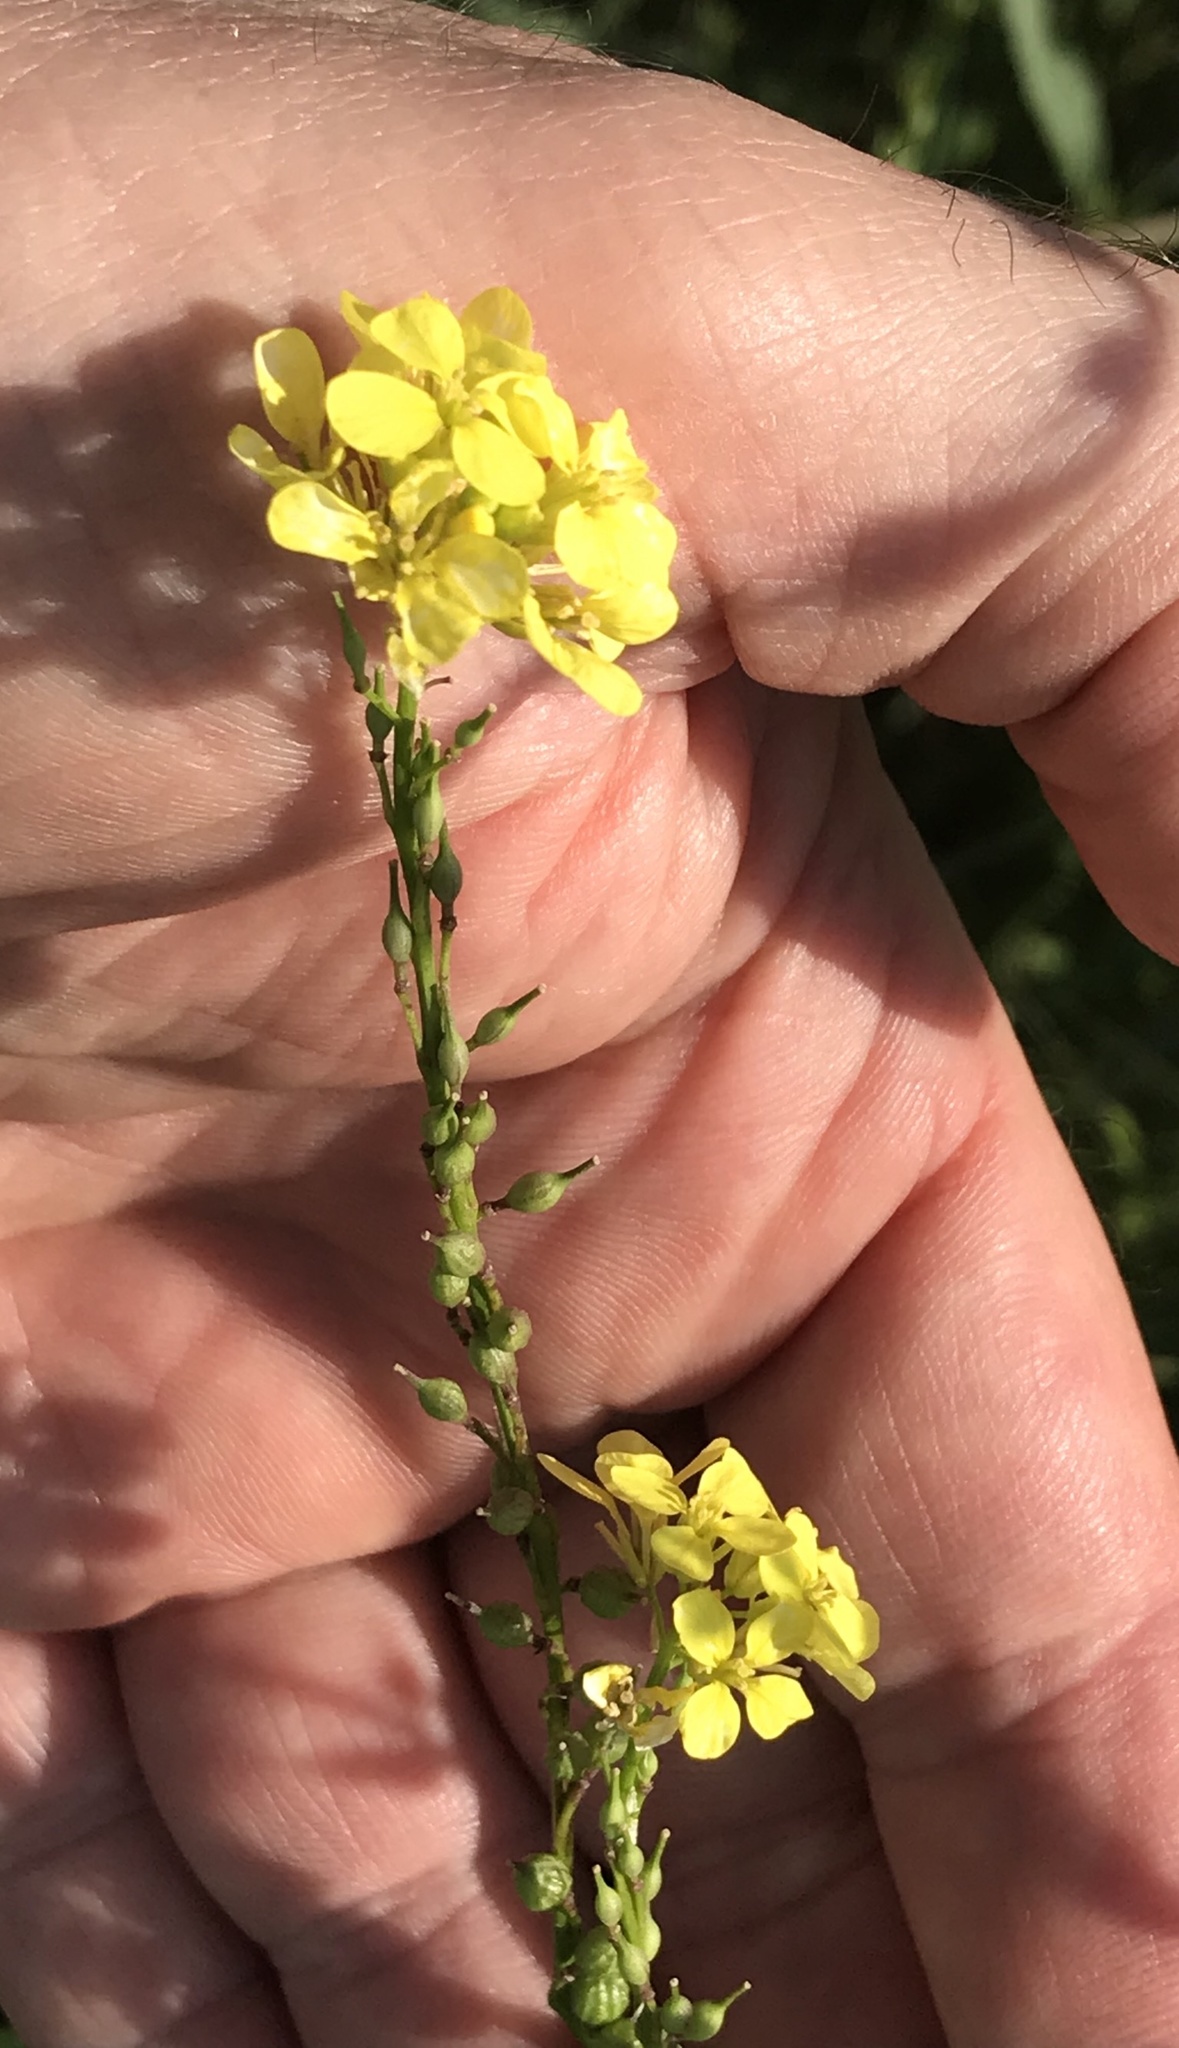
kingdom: Plantae
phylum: Tracheophyta
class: Magnoliopsida
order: Brassicales
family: Brassicaceae
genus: Rapistrum
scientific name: Rapistrum rugosum
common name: Annual bastardcabbage
